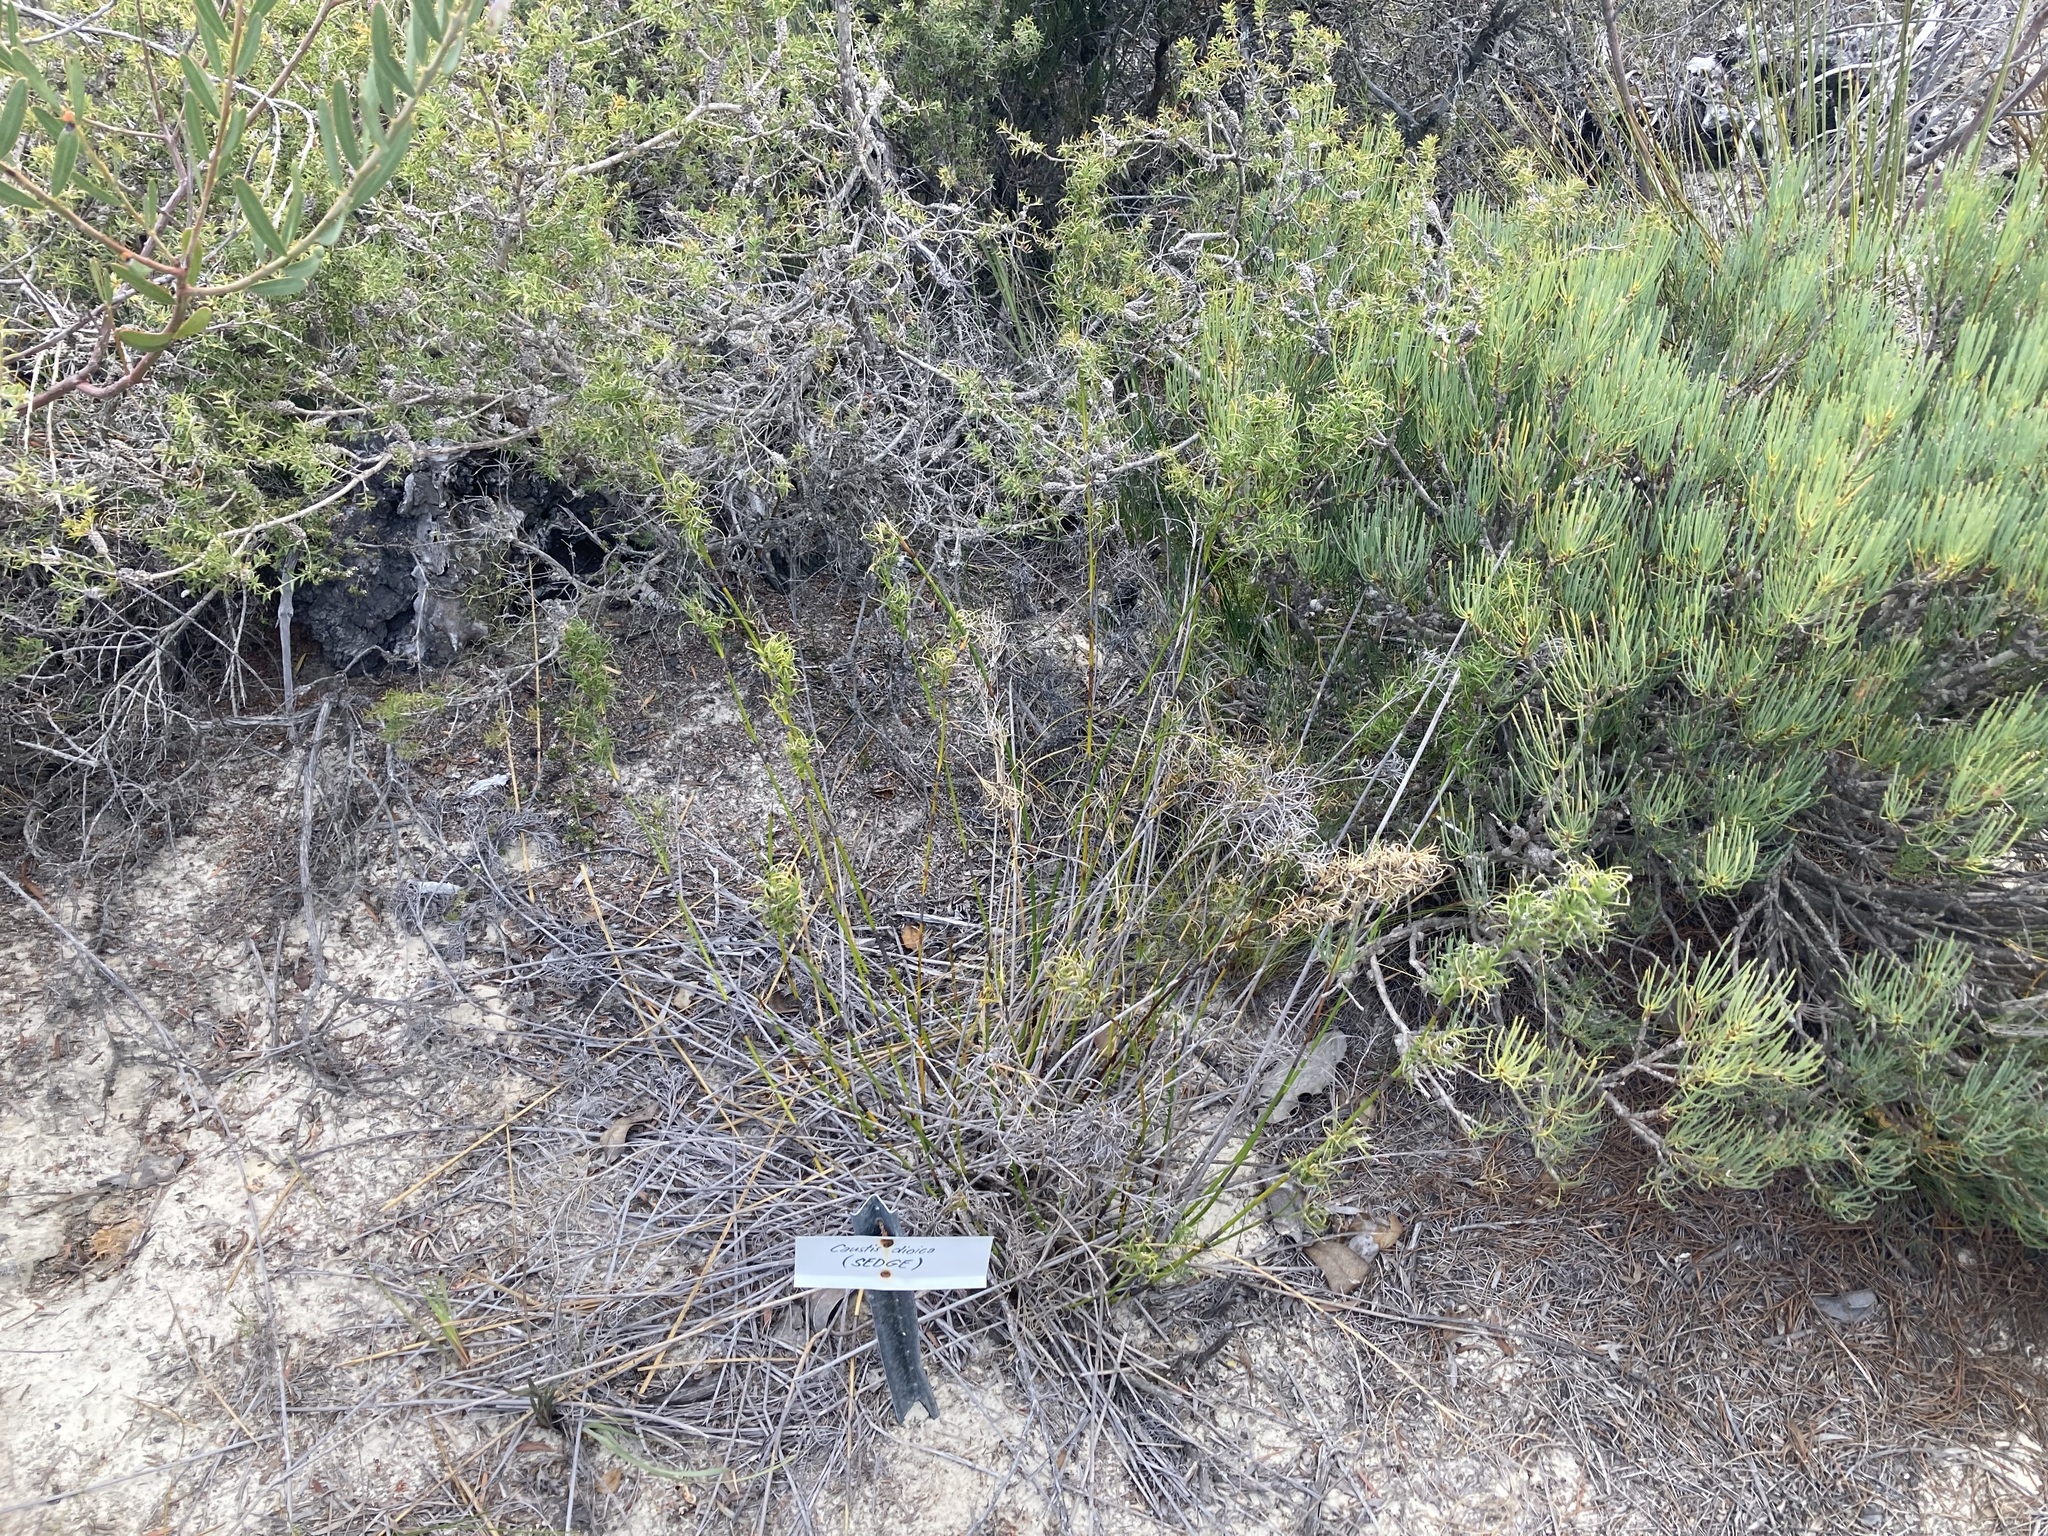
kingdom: Plantae
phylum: Tracheophyta
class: Liliopsida
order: Poales
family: Cyperaceae
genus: Caustis
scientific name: Caustis dioica
